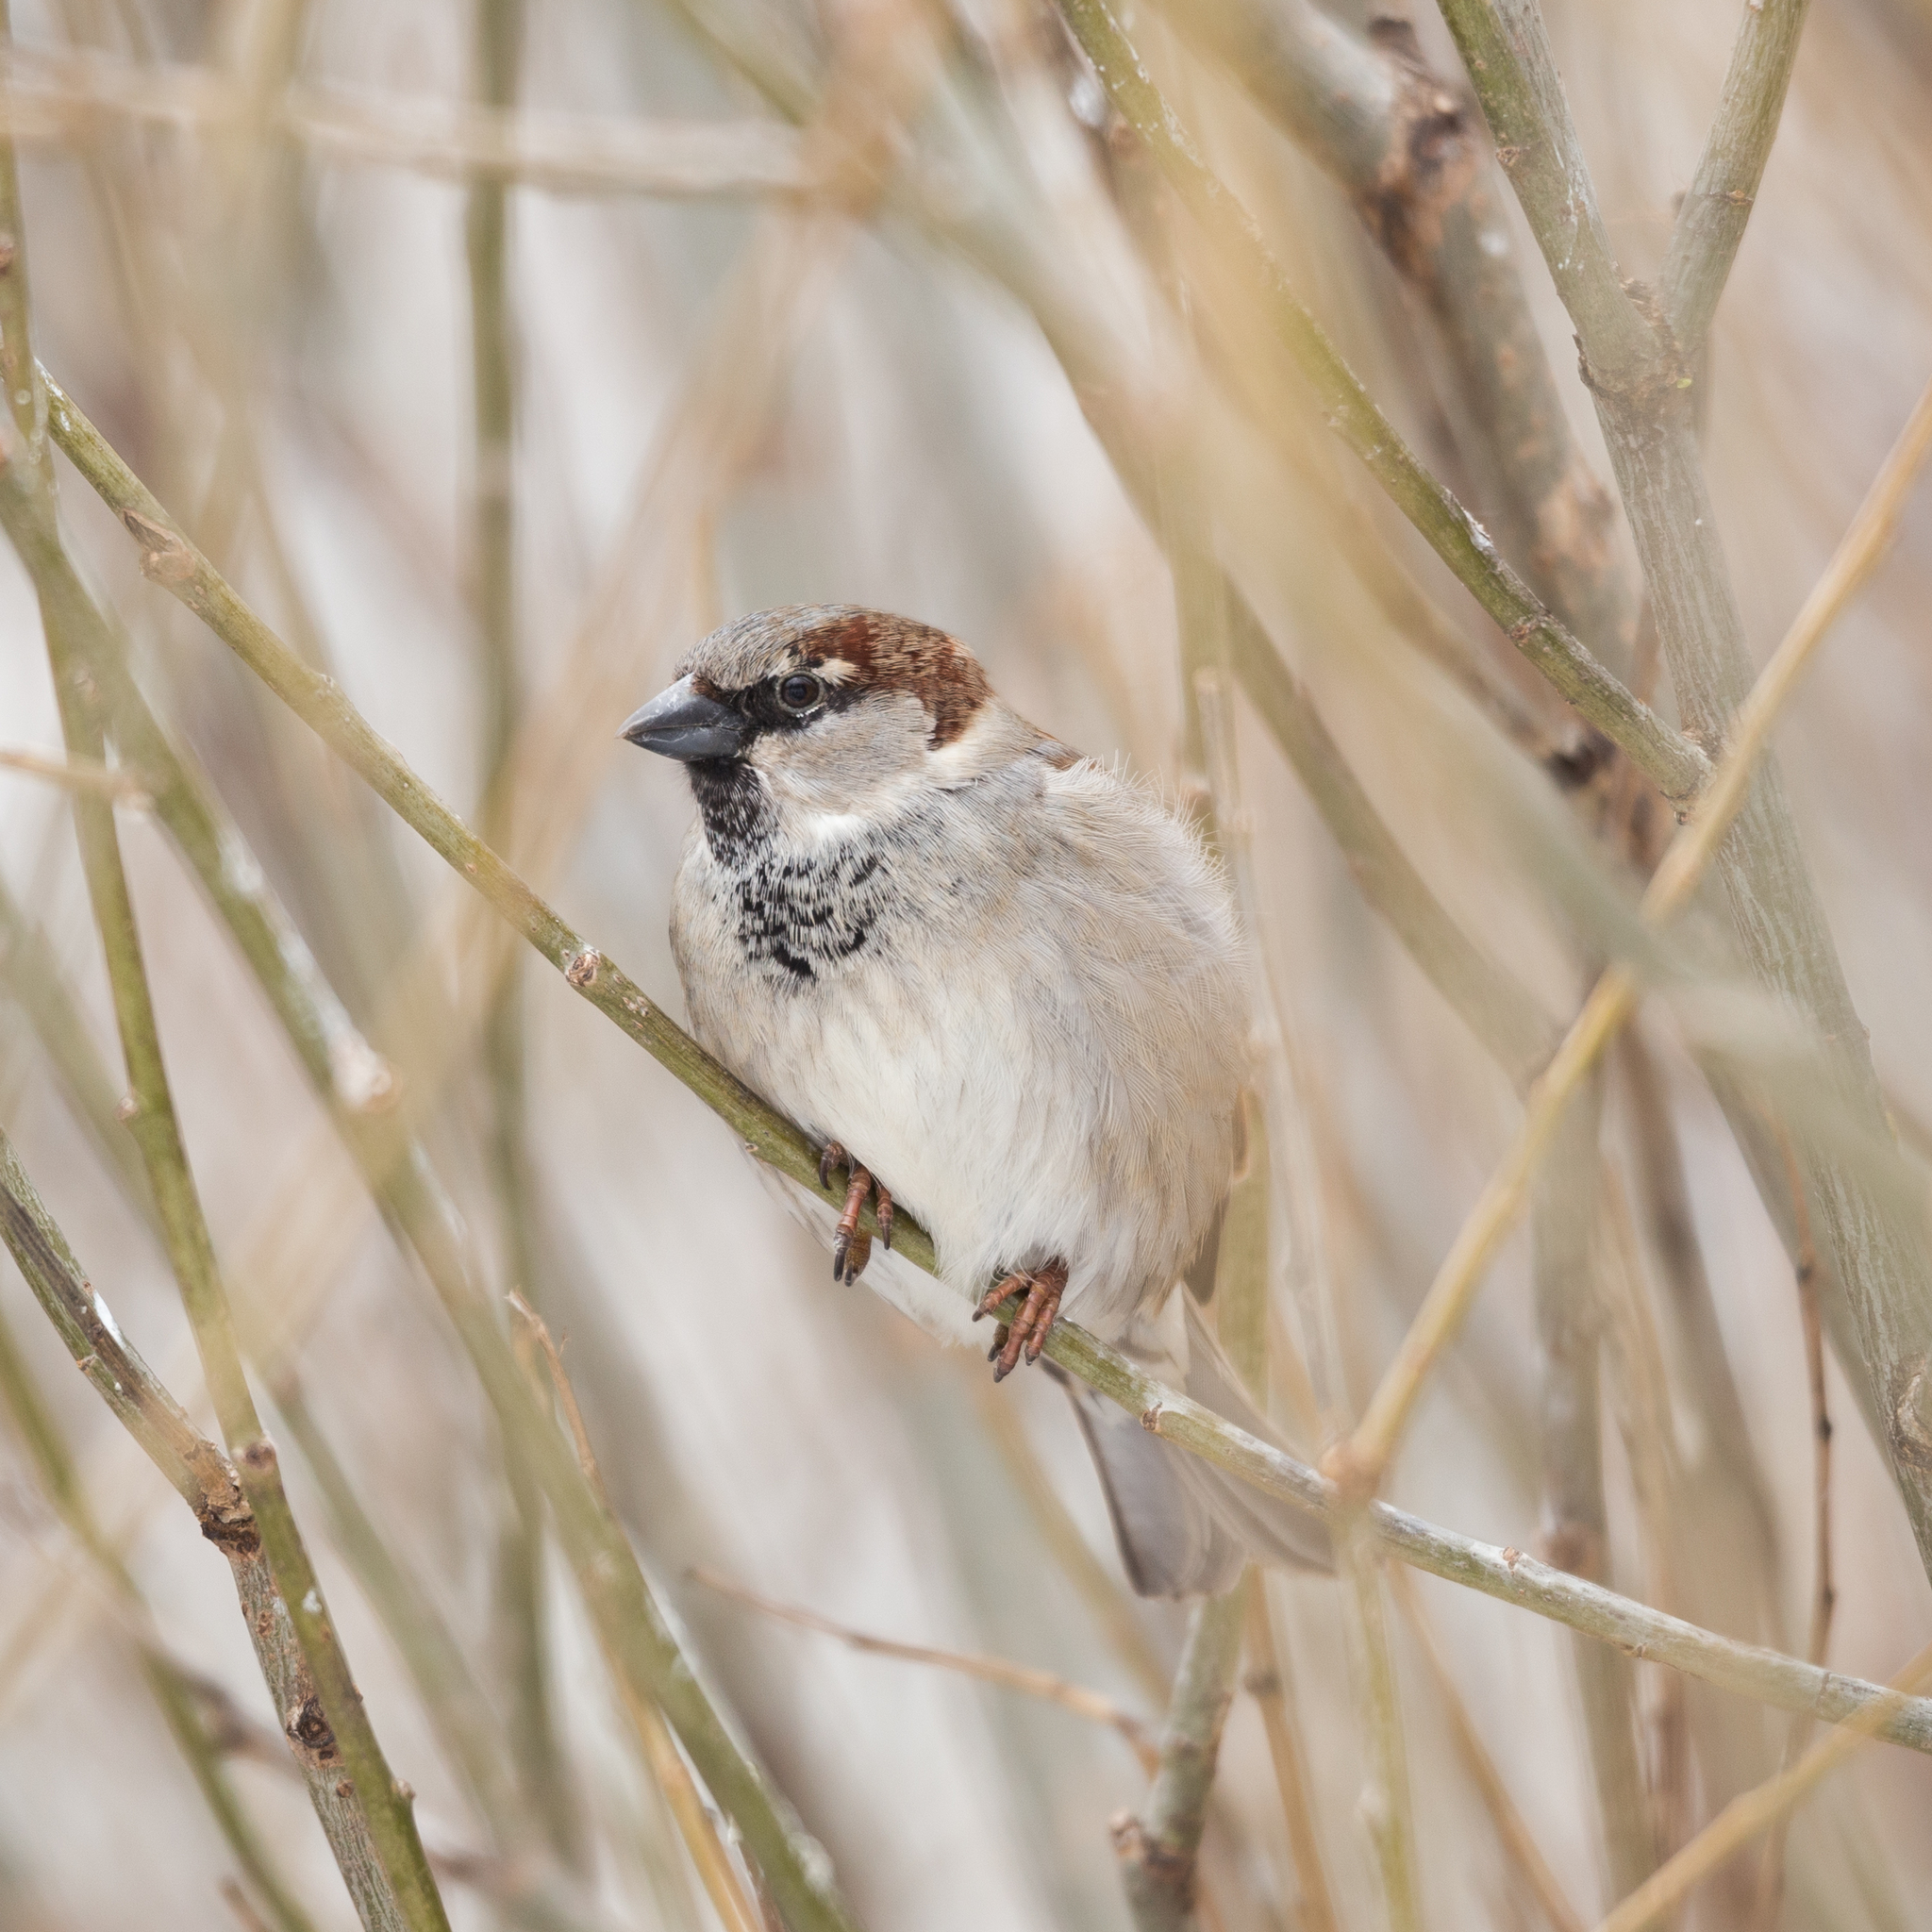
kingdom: Animalia
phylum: Chordata
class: Aves
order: Passeriformes
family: Passeridae
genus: Passer
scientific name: Passer domesticus
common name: House sparrow
